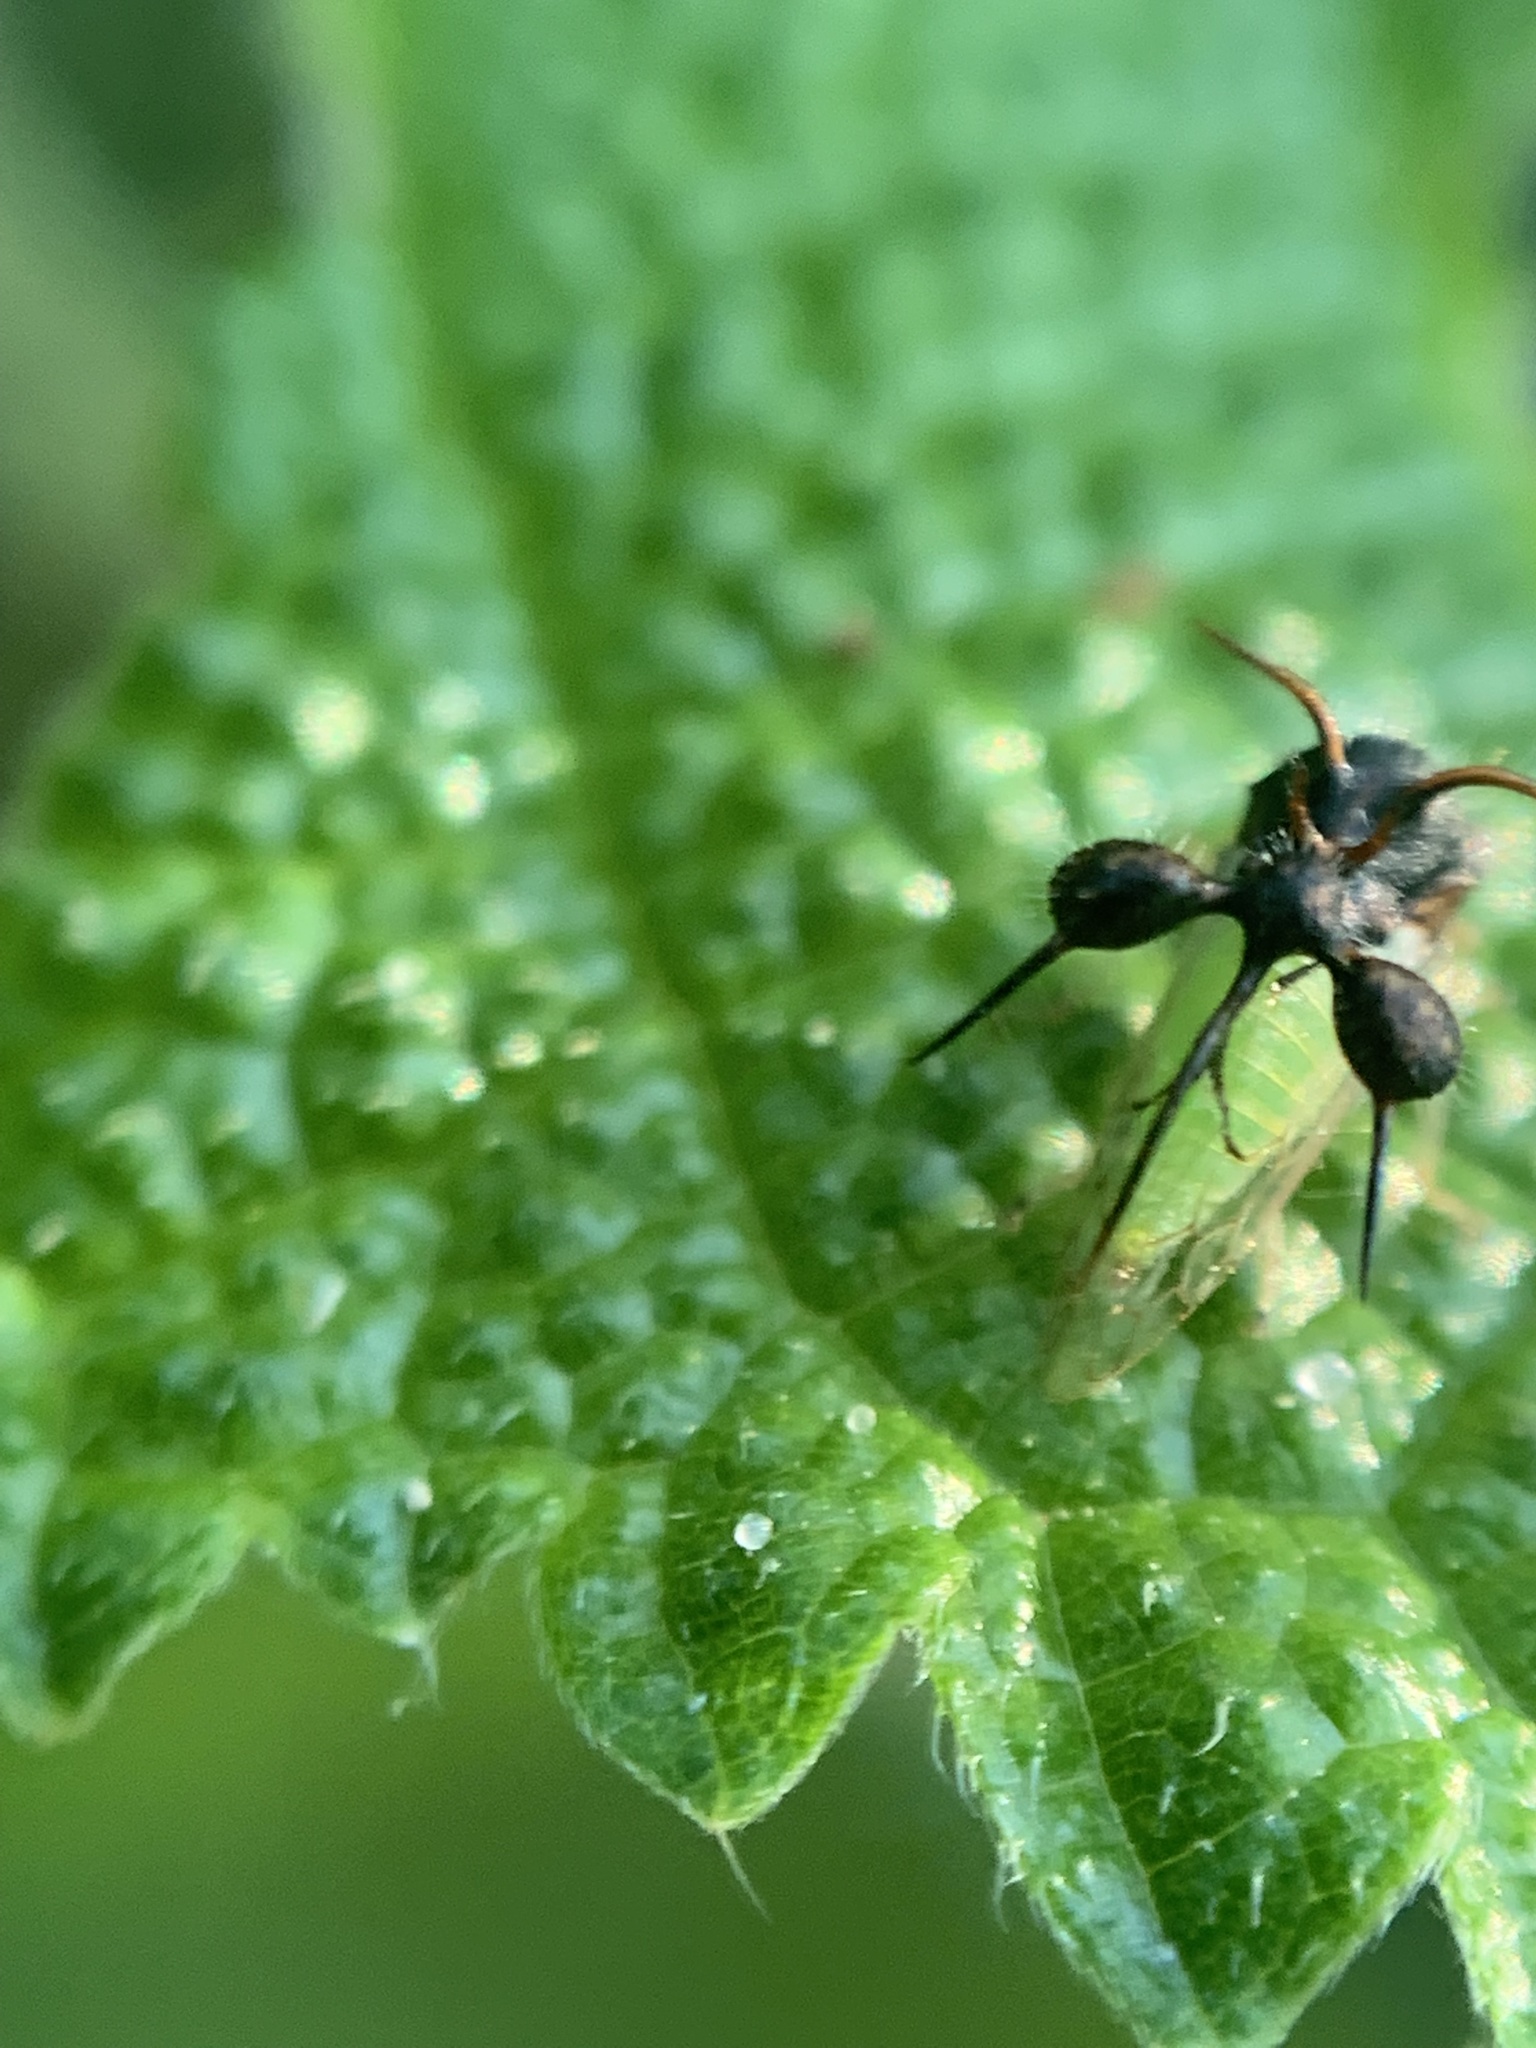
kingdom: Animalia
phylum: Arthropoda
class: Insecta
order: Hemiptera
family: Membracidae
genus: Cyphonia
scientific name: Cyphonia clavata
